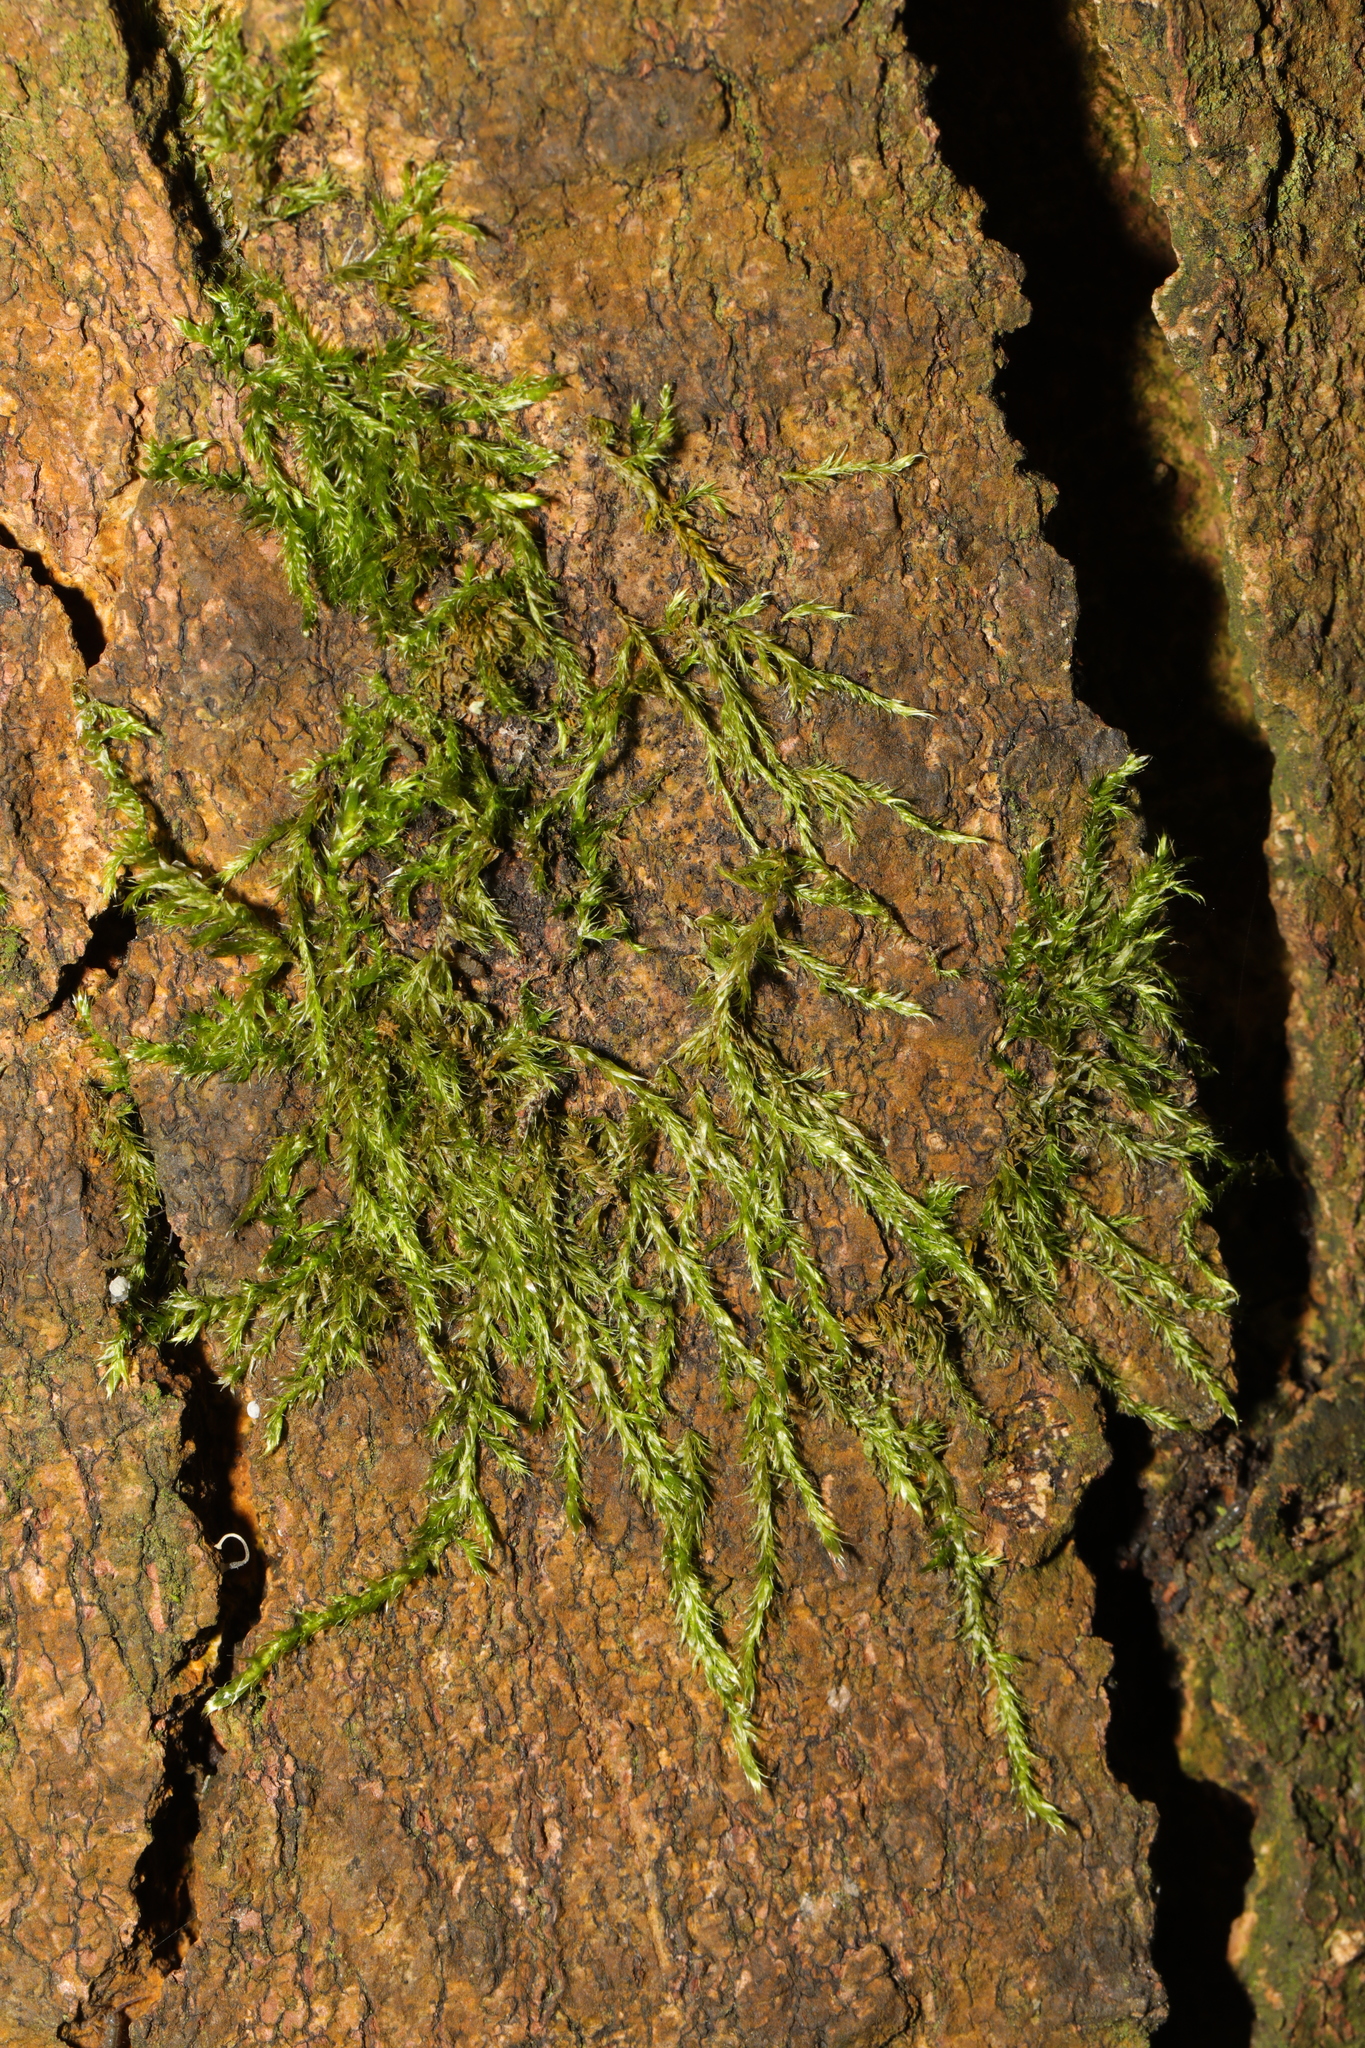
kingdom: Plantae
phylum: Bryophyta
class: Bryopsida
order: Hypnales
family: Hypnaceae
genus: Hypnum
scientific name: Hypnum resupinatum
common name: Supine plait-moss
